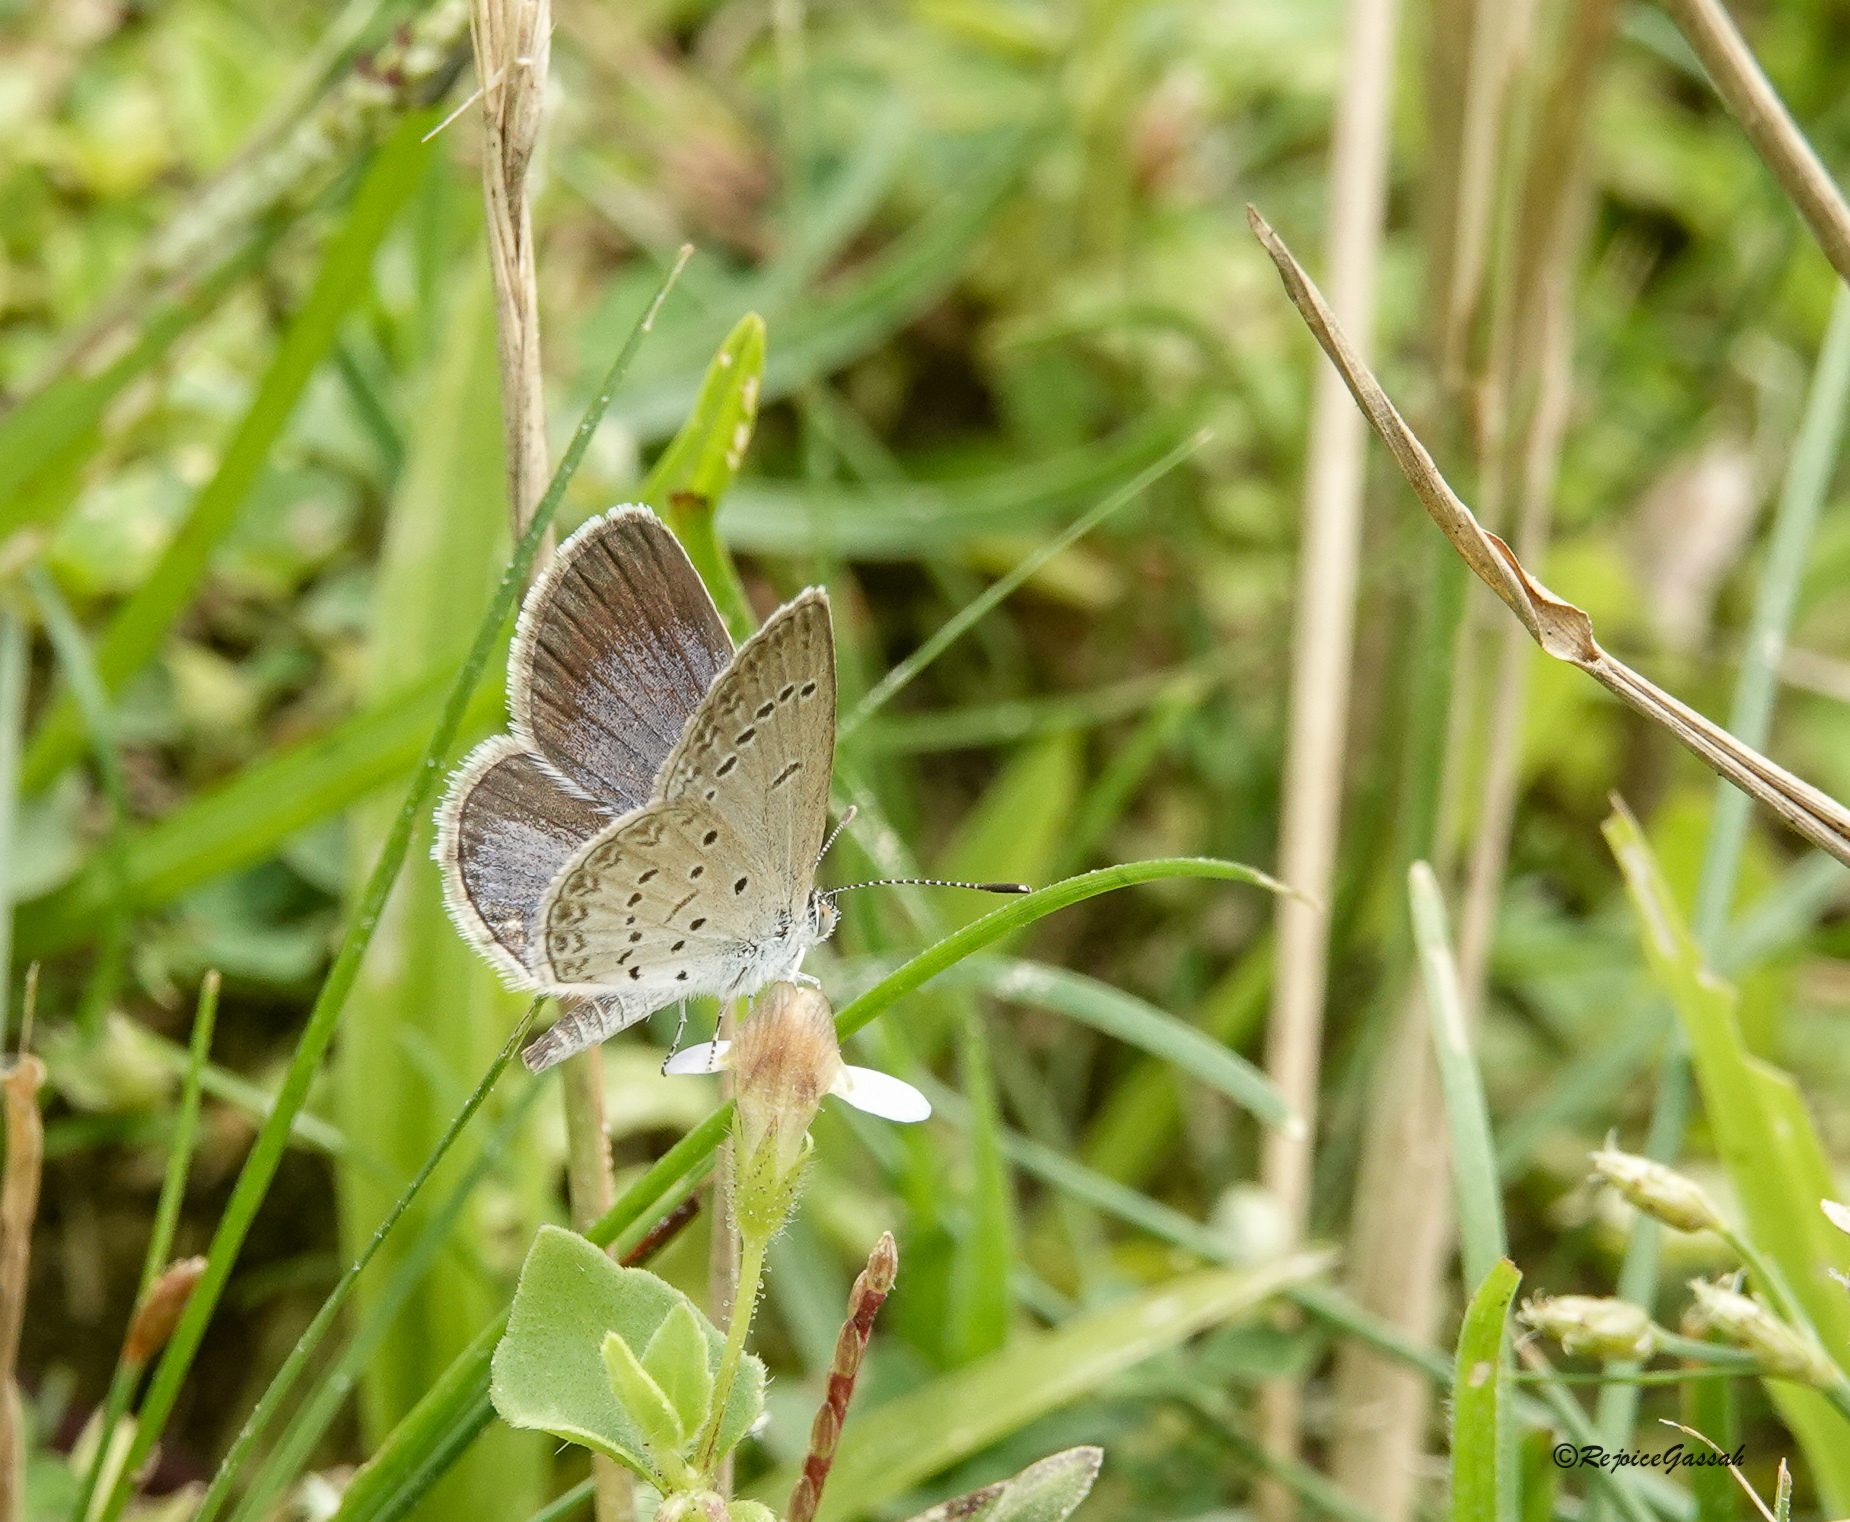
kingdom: Animalia
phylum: Arthropoda
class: Insecta
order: Lepidoptera
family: Lycaenidae
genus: Zizina
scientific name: Zizina otis
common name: Lesser grass blue
